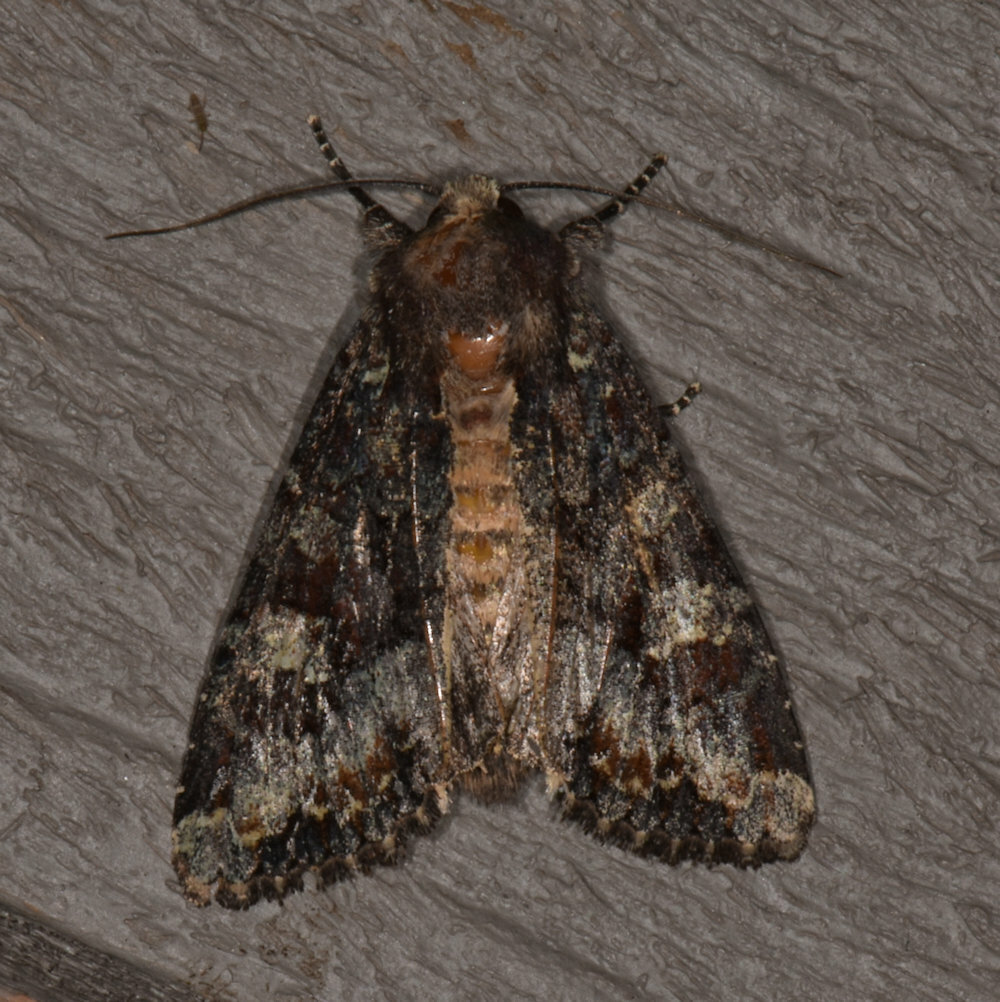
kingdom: Animalia
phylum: Arthropoda
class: Insecta
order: Lepidoptera
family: Noctuidae
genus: Apamea
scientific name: Apamea amputatrix
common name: Yellow-headed cutworm moth
